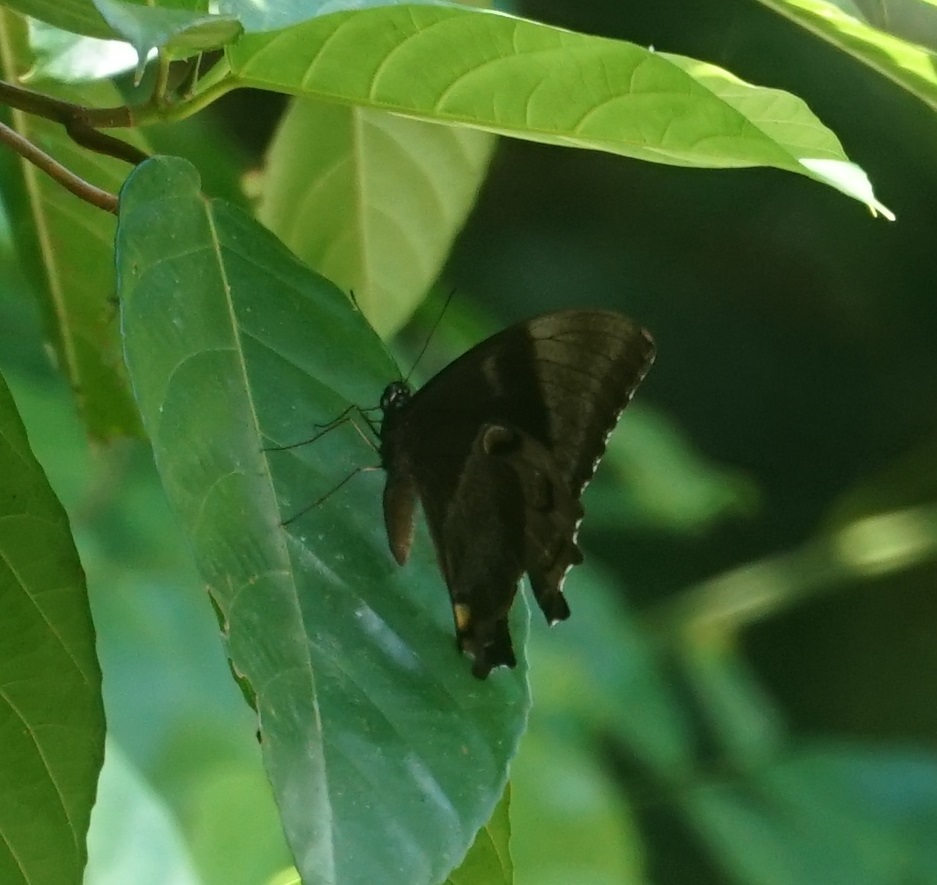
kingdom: Animalia
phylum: Arthropoda
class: Insecta
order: Lepidoptera
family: Papilionidae
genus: Papilio
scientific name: Papilio ulysses
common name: Blue emperor
